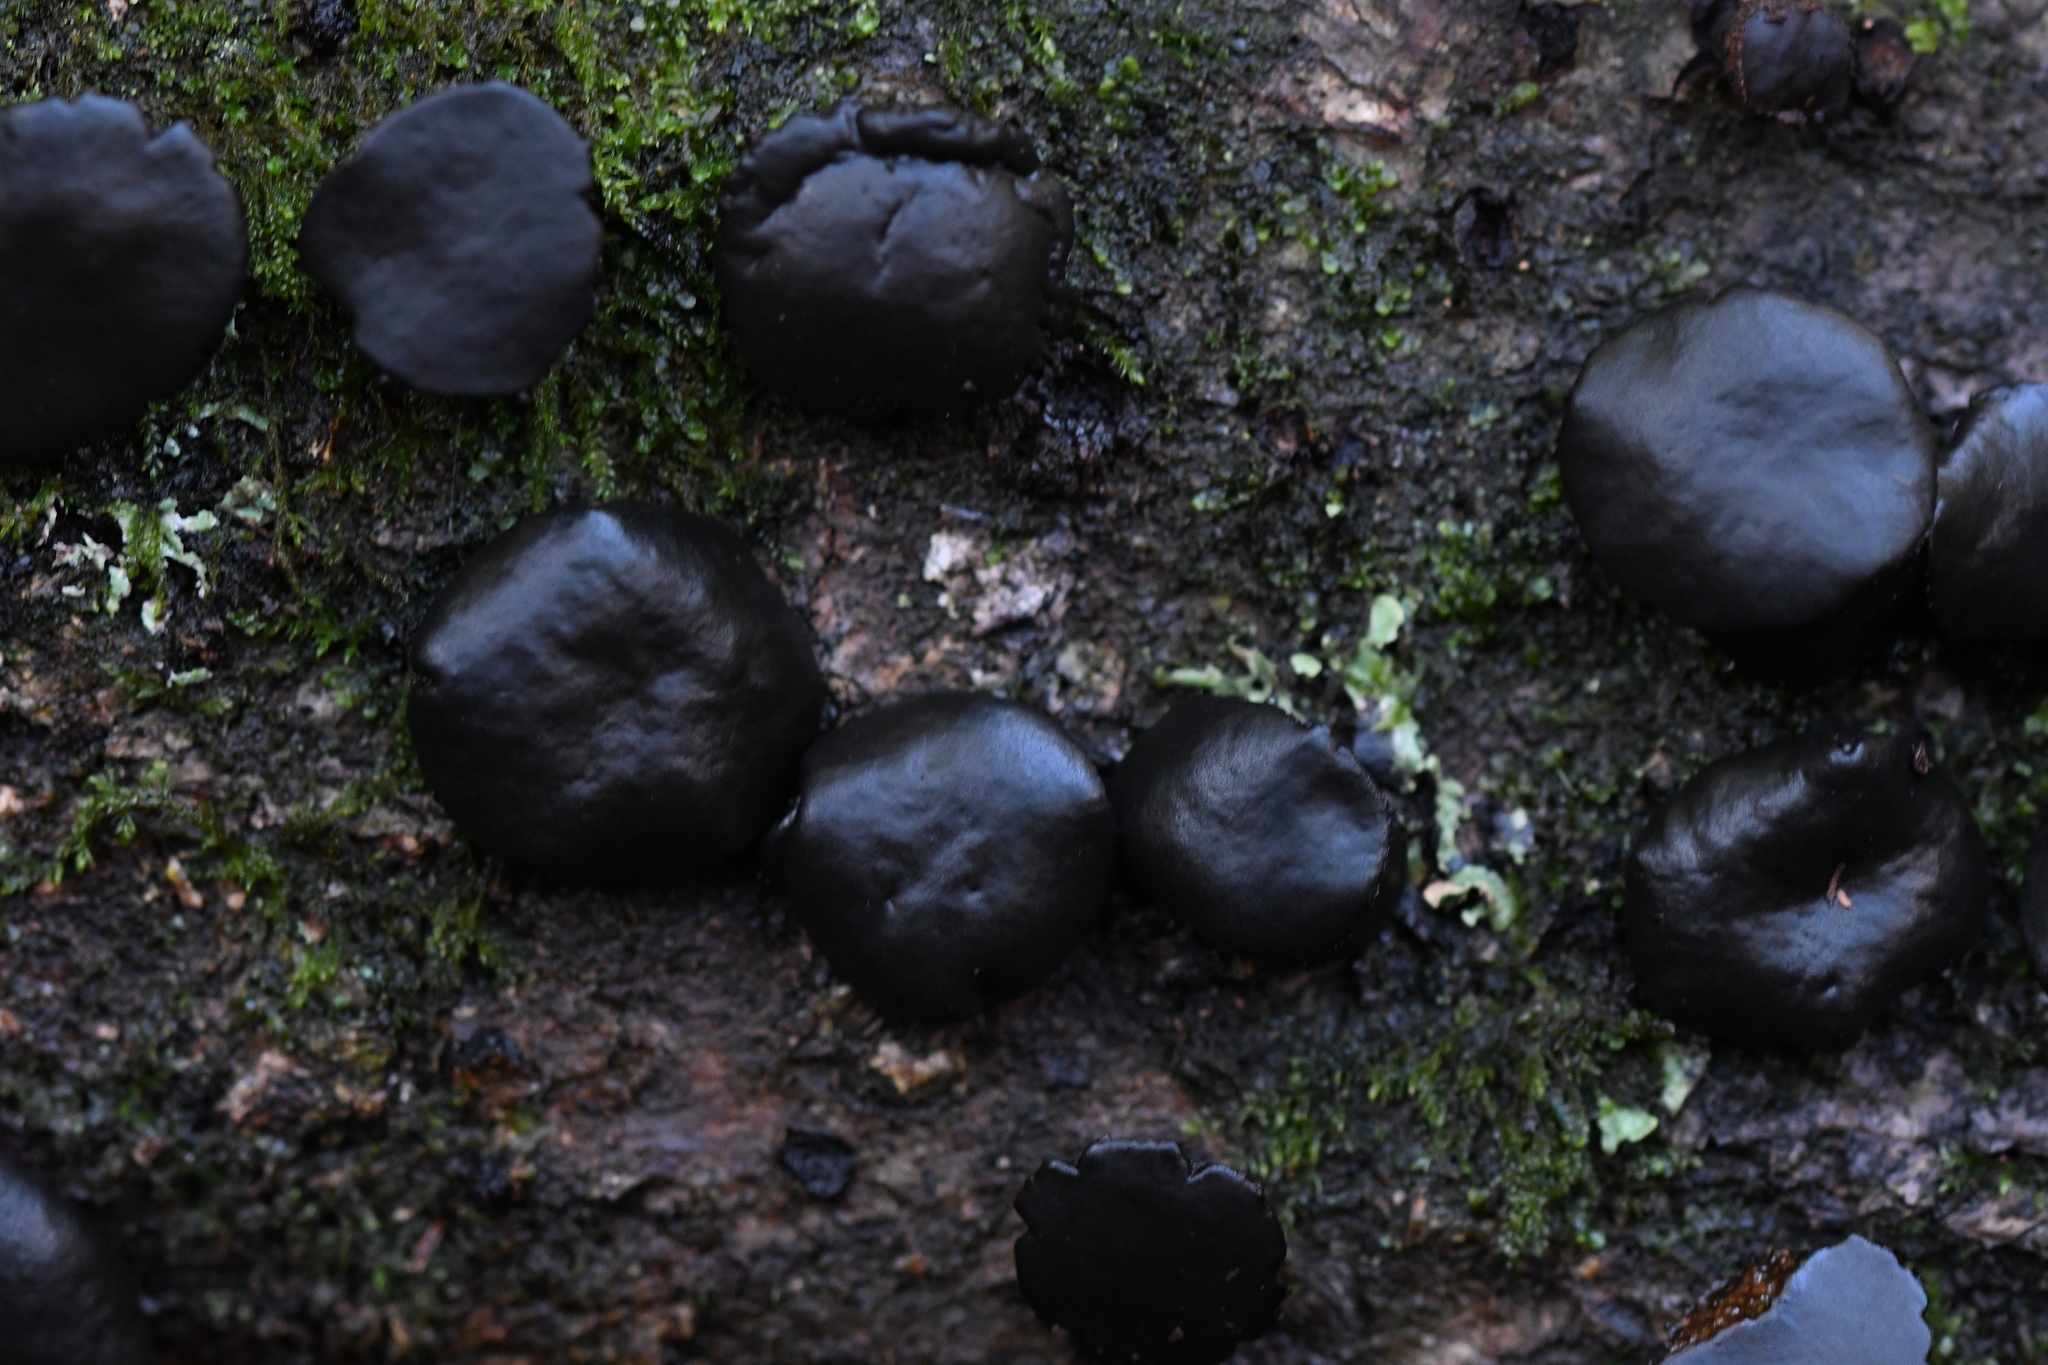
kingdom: Fungi
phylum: Ascomycota
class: Leotiomycetes
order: Phacidiales
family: Phacidiaceae
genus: Bulgaria
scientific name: Bulgaria inquinans
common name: Black bulgar
